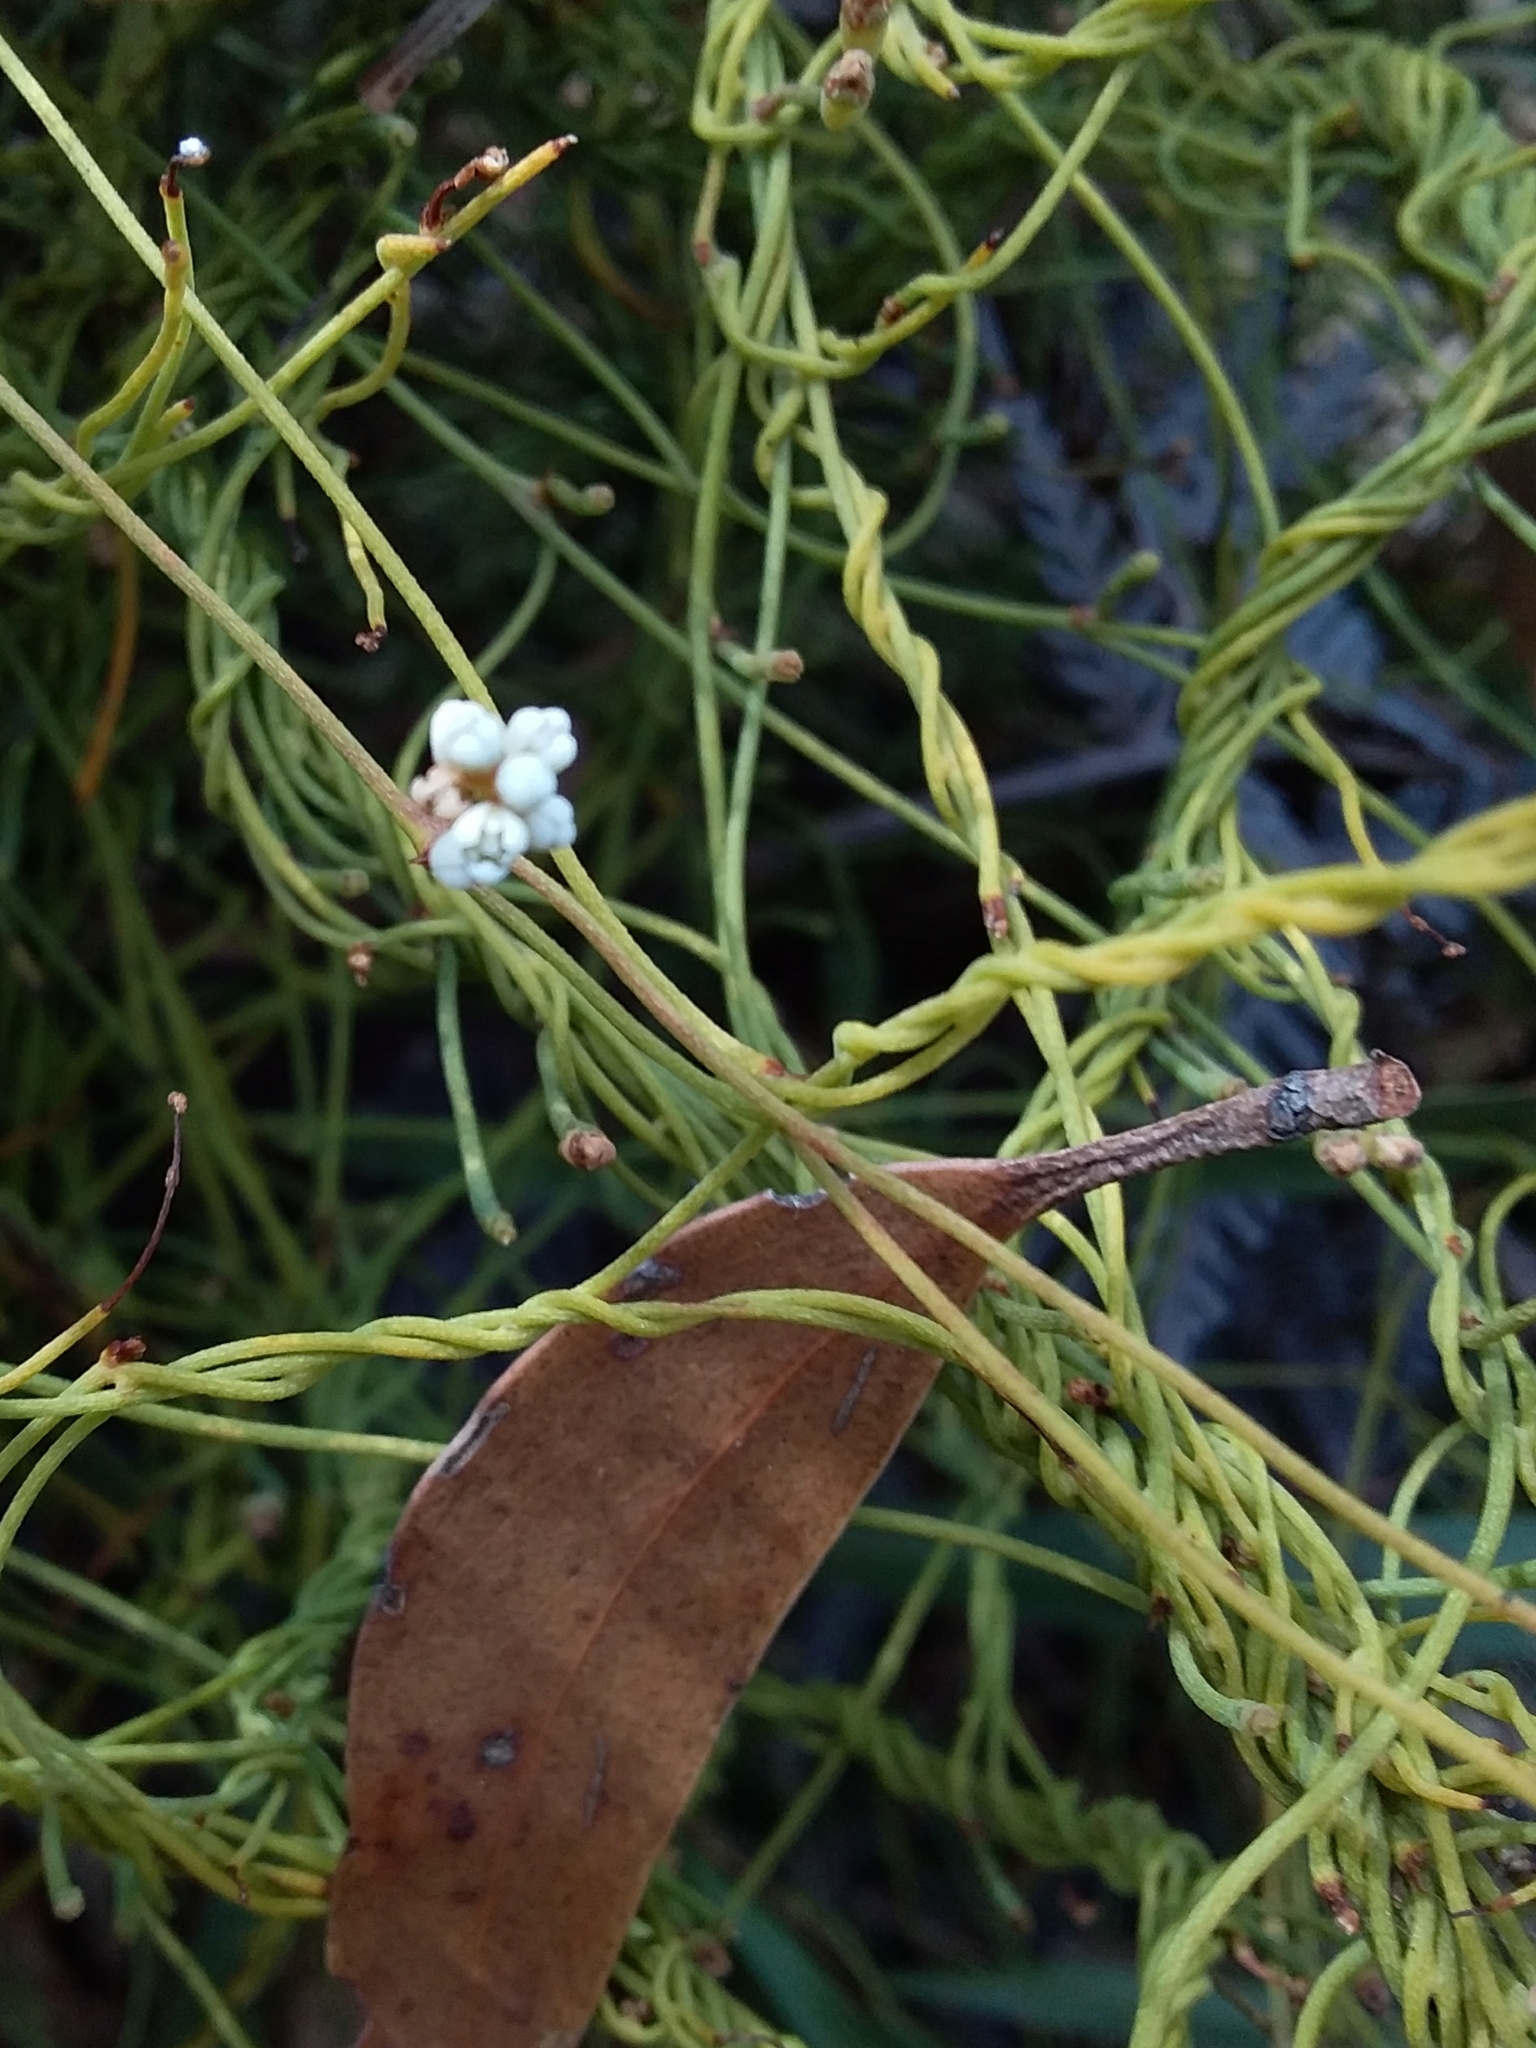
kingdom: Plantae
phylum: Tracheophyta
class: Magnoliopsida
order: Laurales
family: Lauraceae
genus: Cassytha
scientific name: Cassytha glabella
